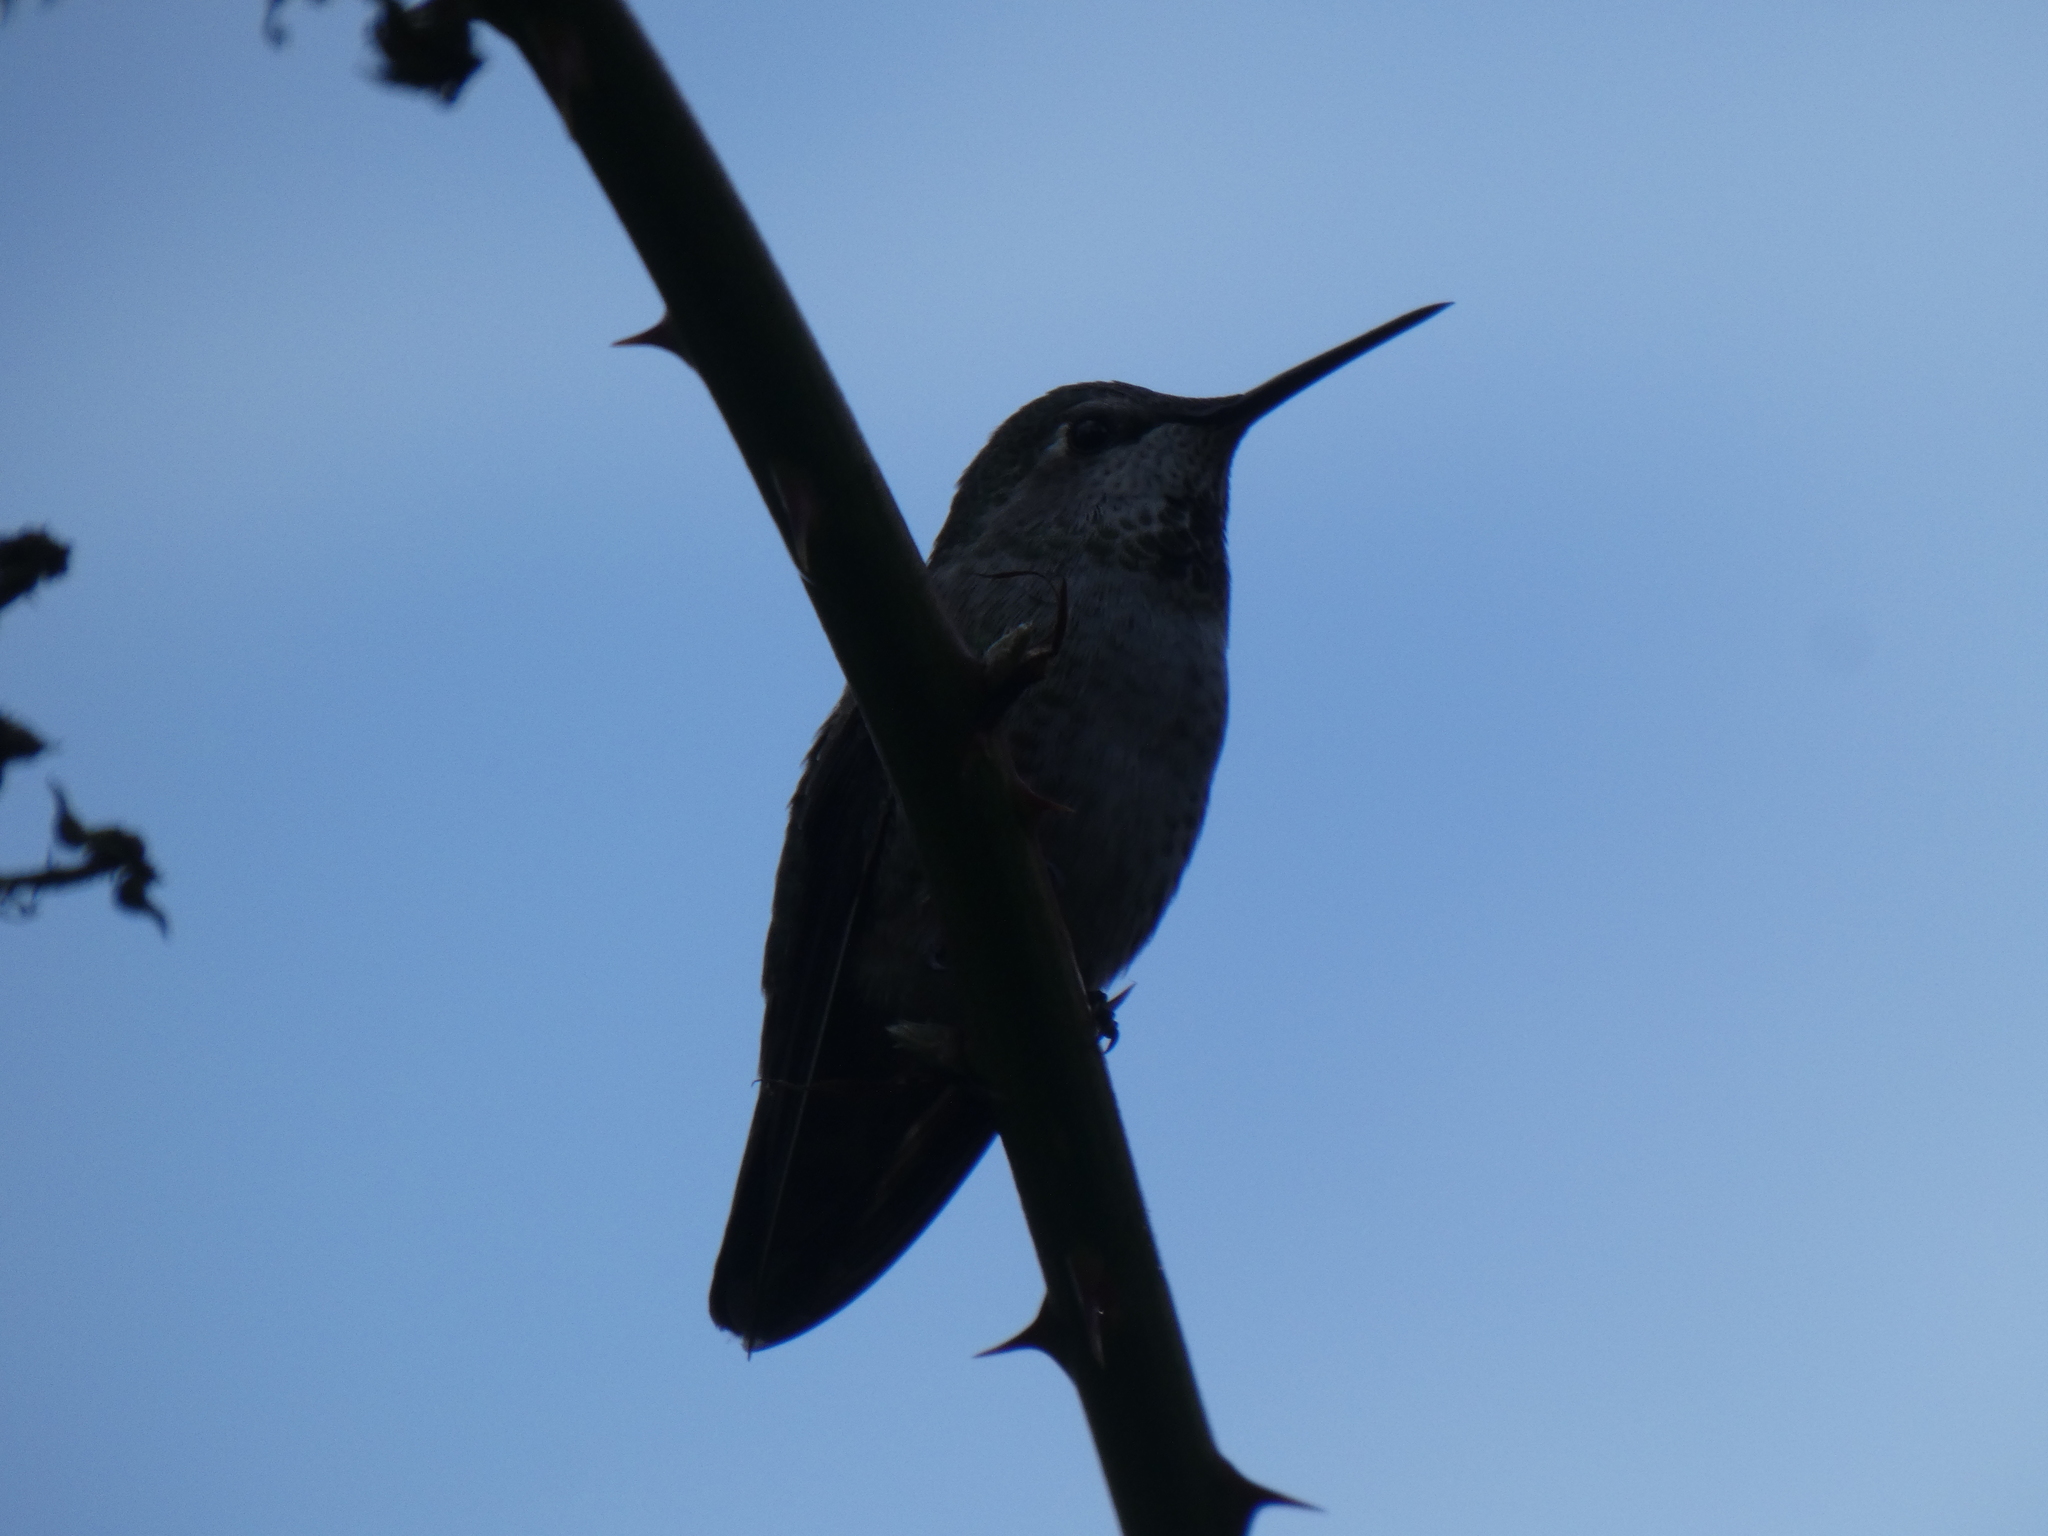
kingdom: Animalia
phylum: Chordata
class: Aves
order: Apodiformes
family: Trochilidae
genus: Calypte
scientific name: Calypte anna
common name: Anna's hummingbird
